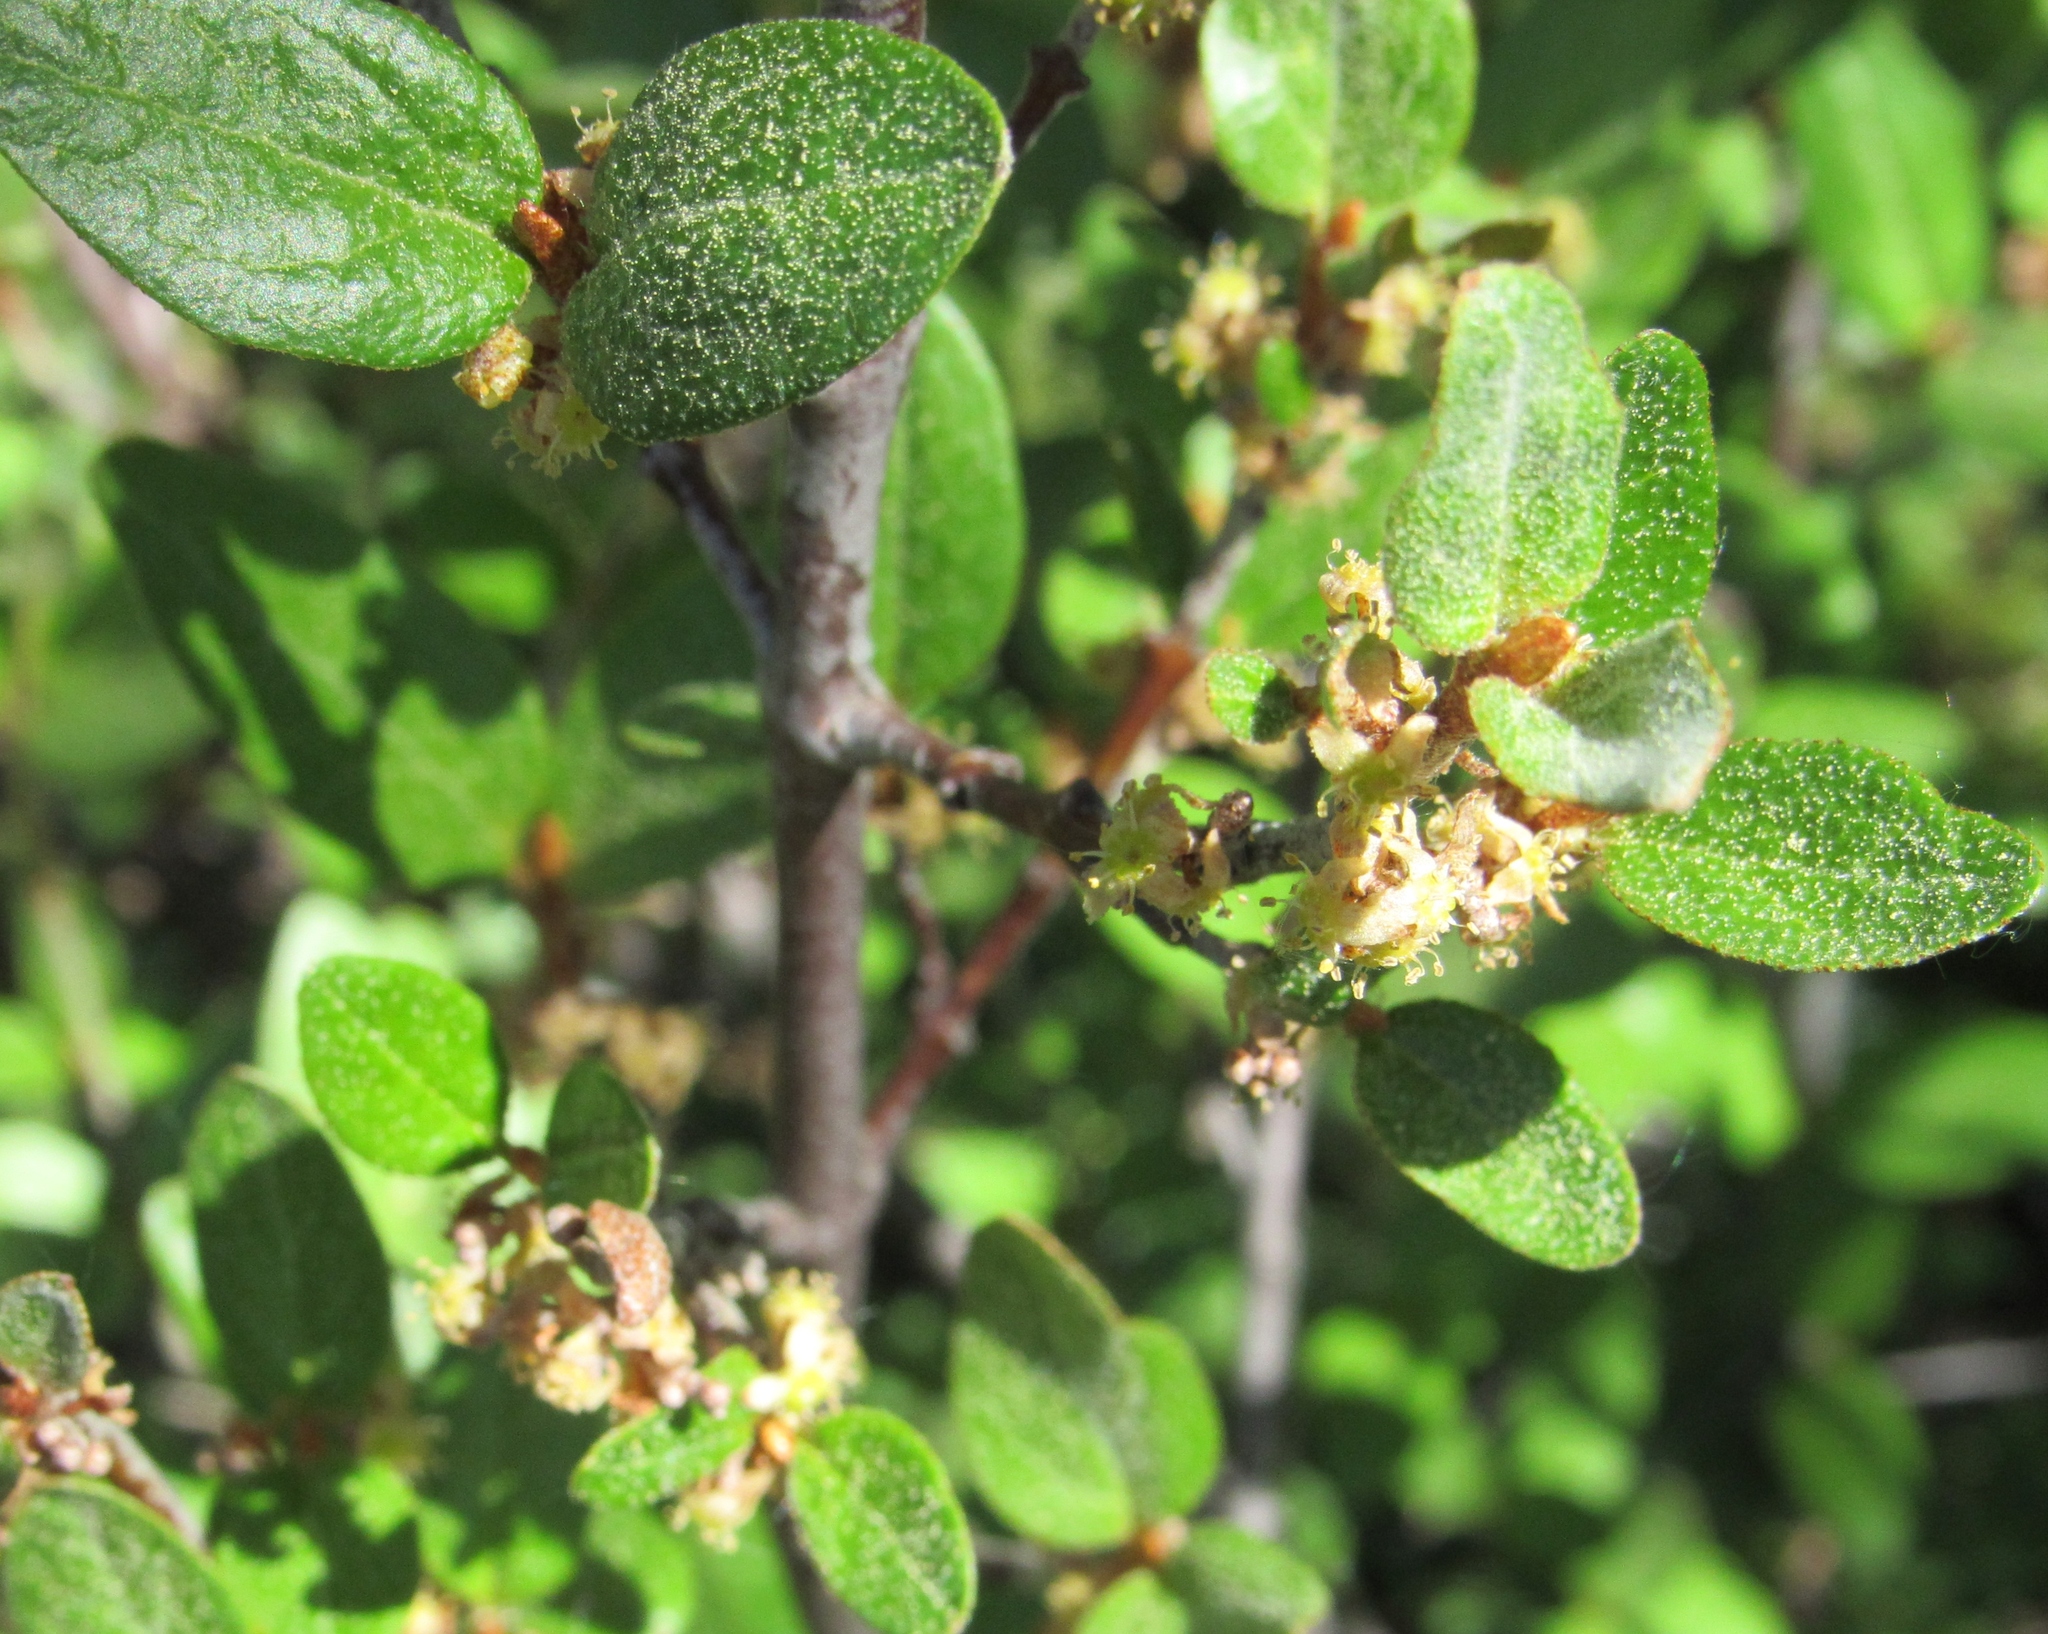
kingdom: Plantae
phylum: Tracheophyta
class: Magnoliopsida
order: Rosales
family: Elaeagnaceae
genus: Shepherdia
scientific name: Shepherdia canadensis
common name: Soapberry
